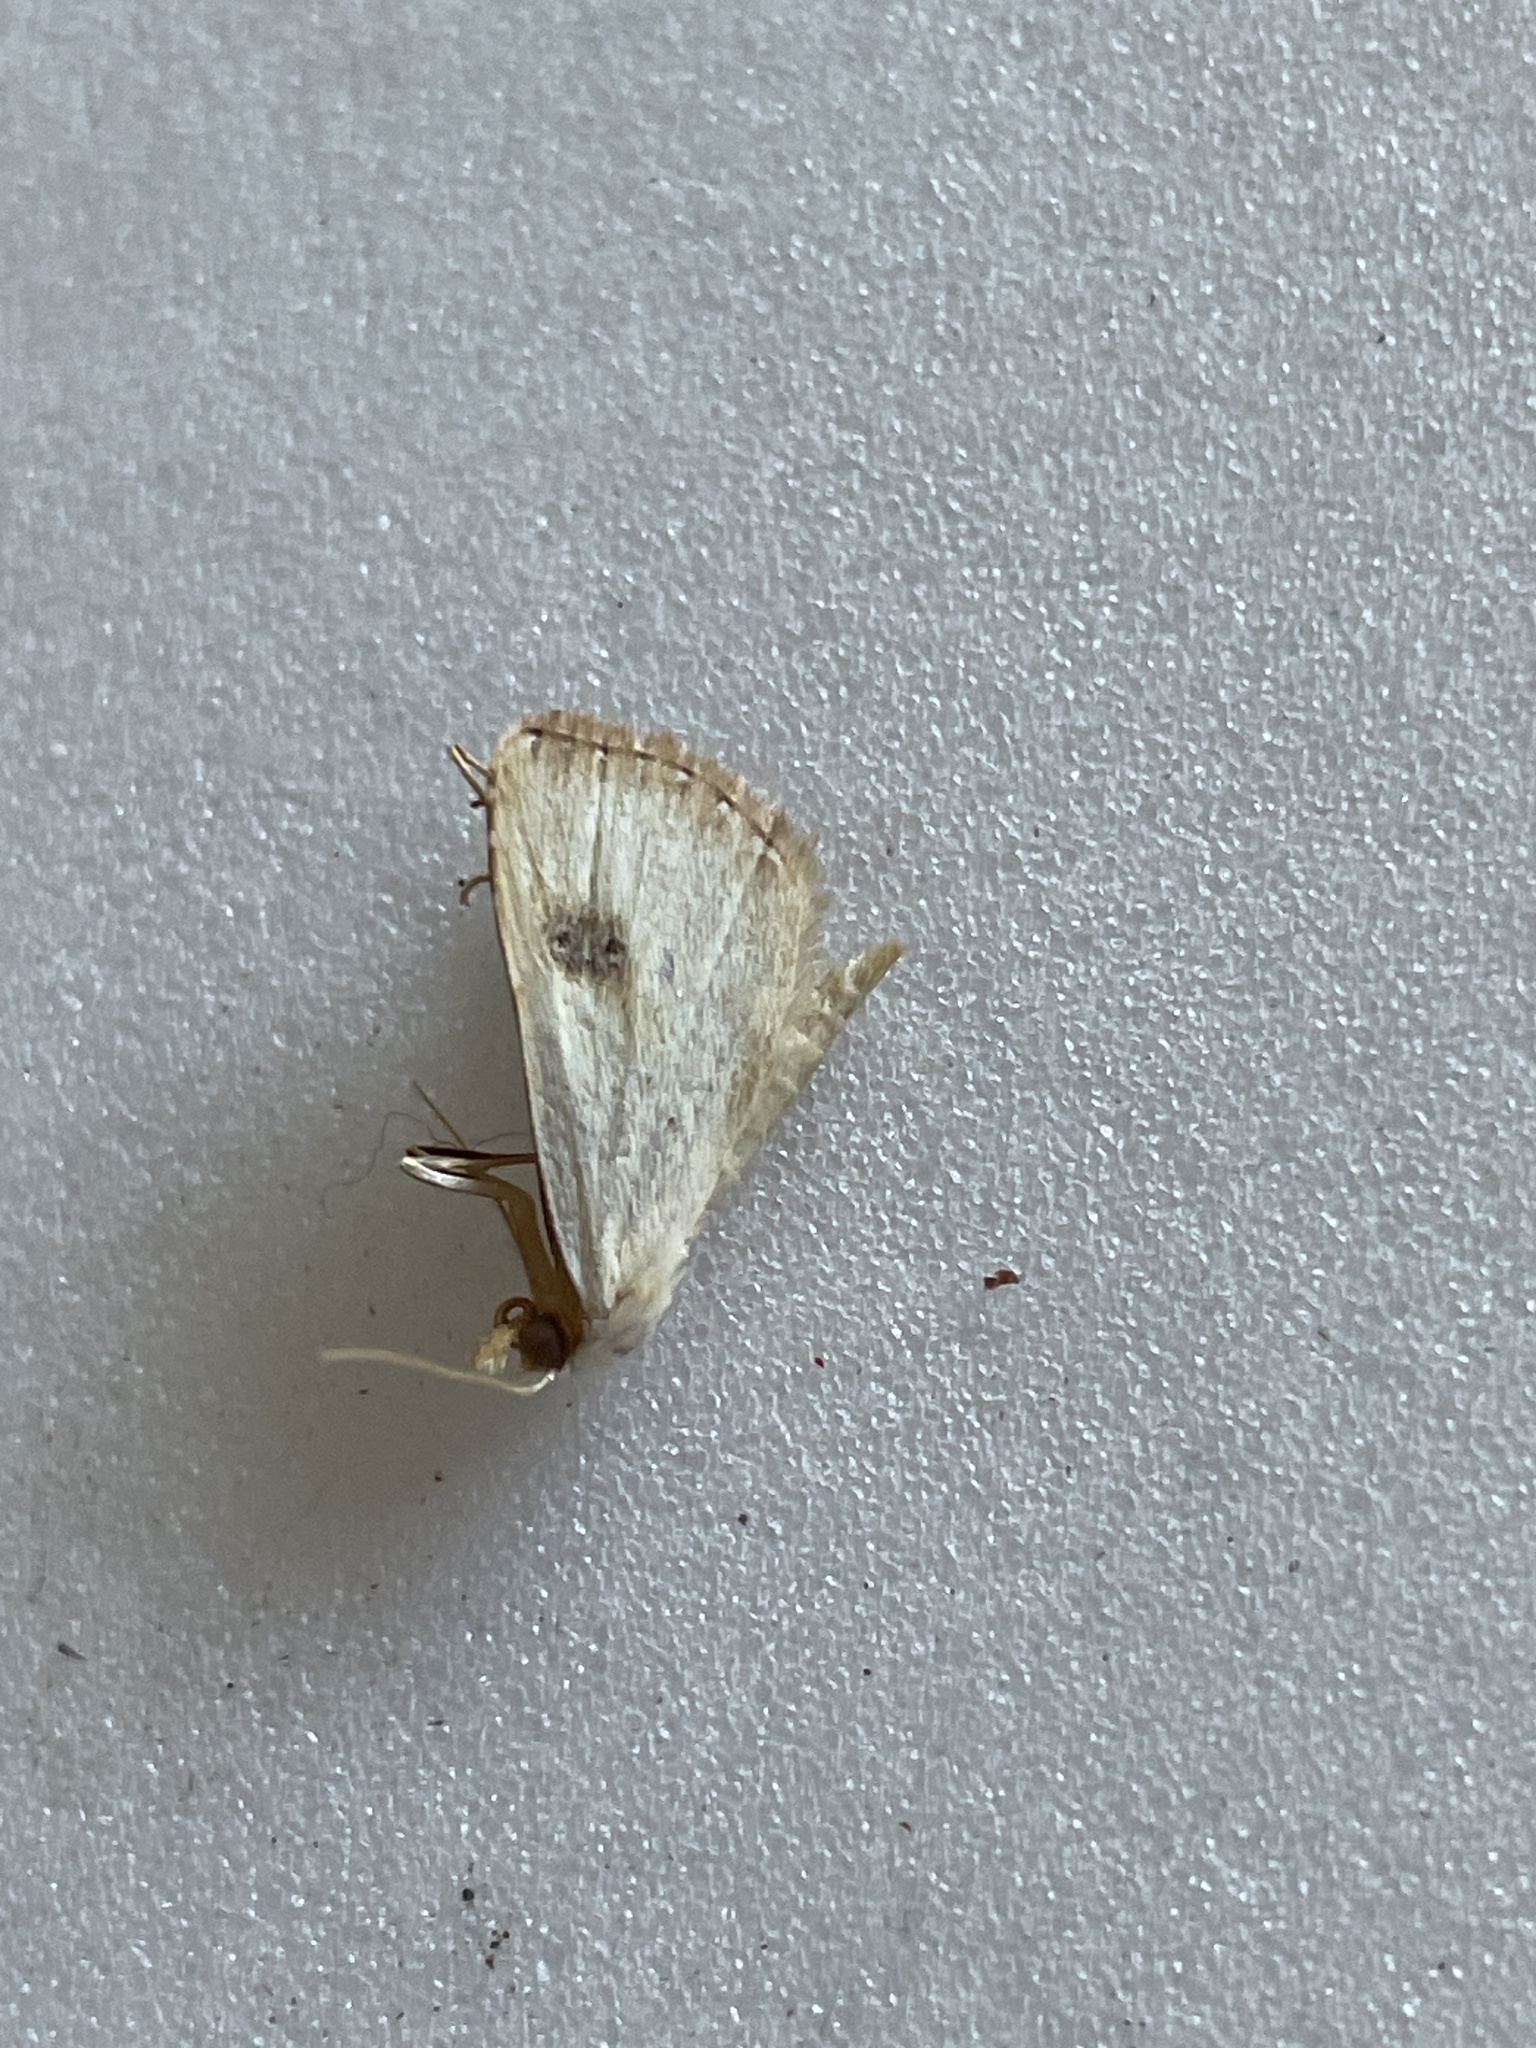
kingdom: Animalia
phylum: Arthropoda
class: Insecta
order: Lepidoptera
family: Erebidae
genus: Rivula
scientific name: Rivula sericealis
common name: Straw dot
